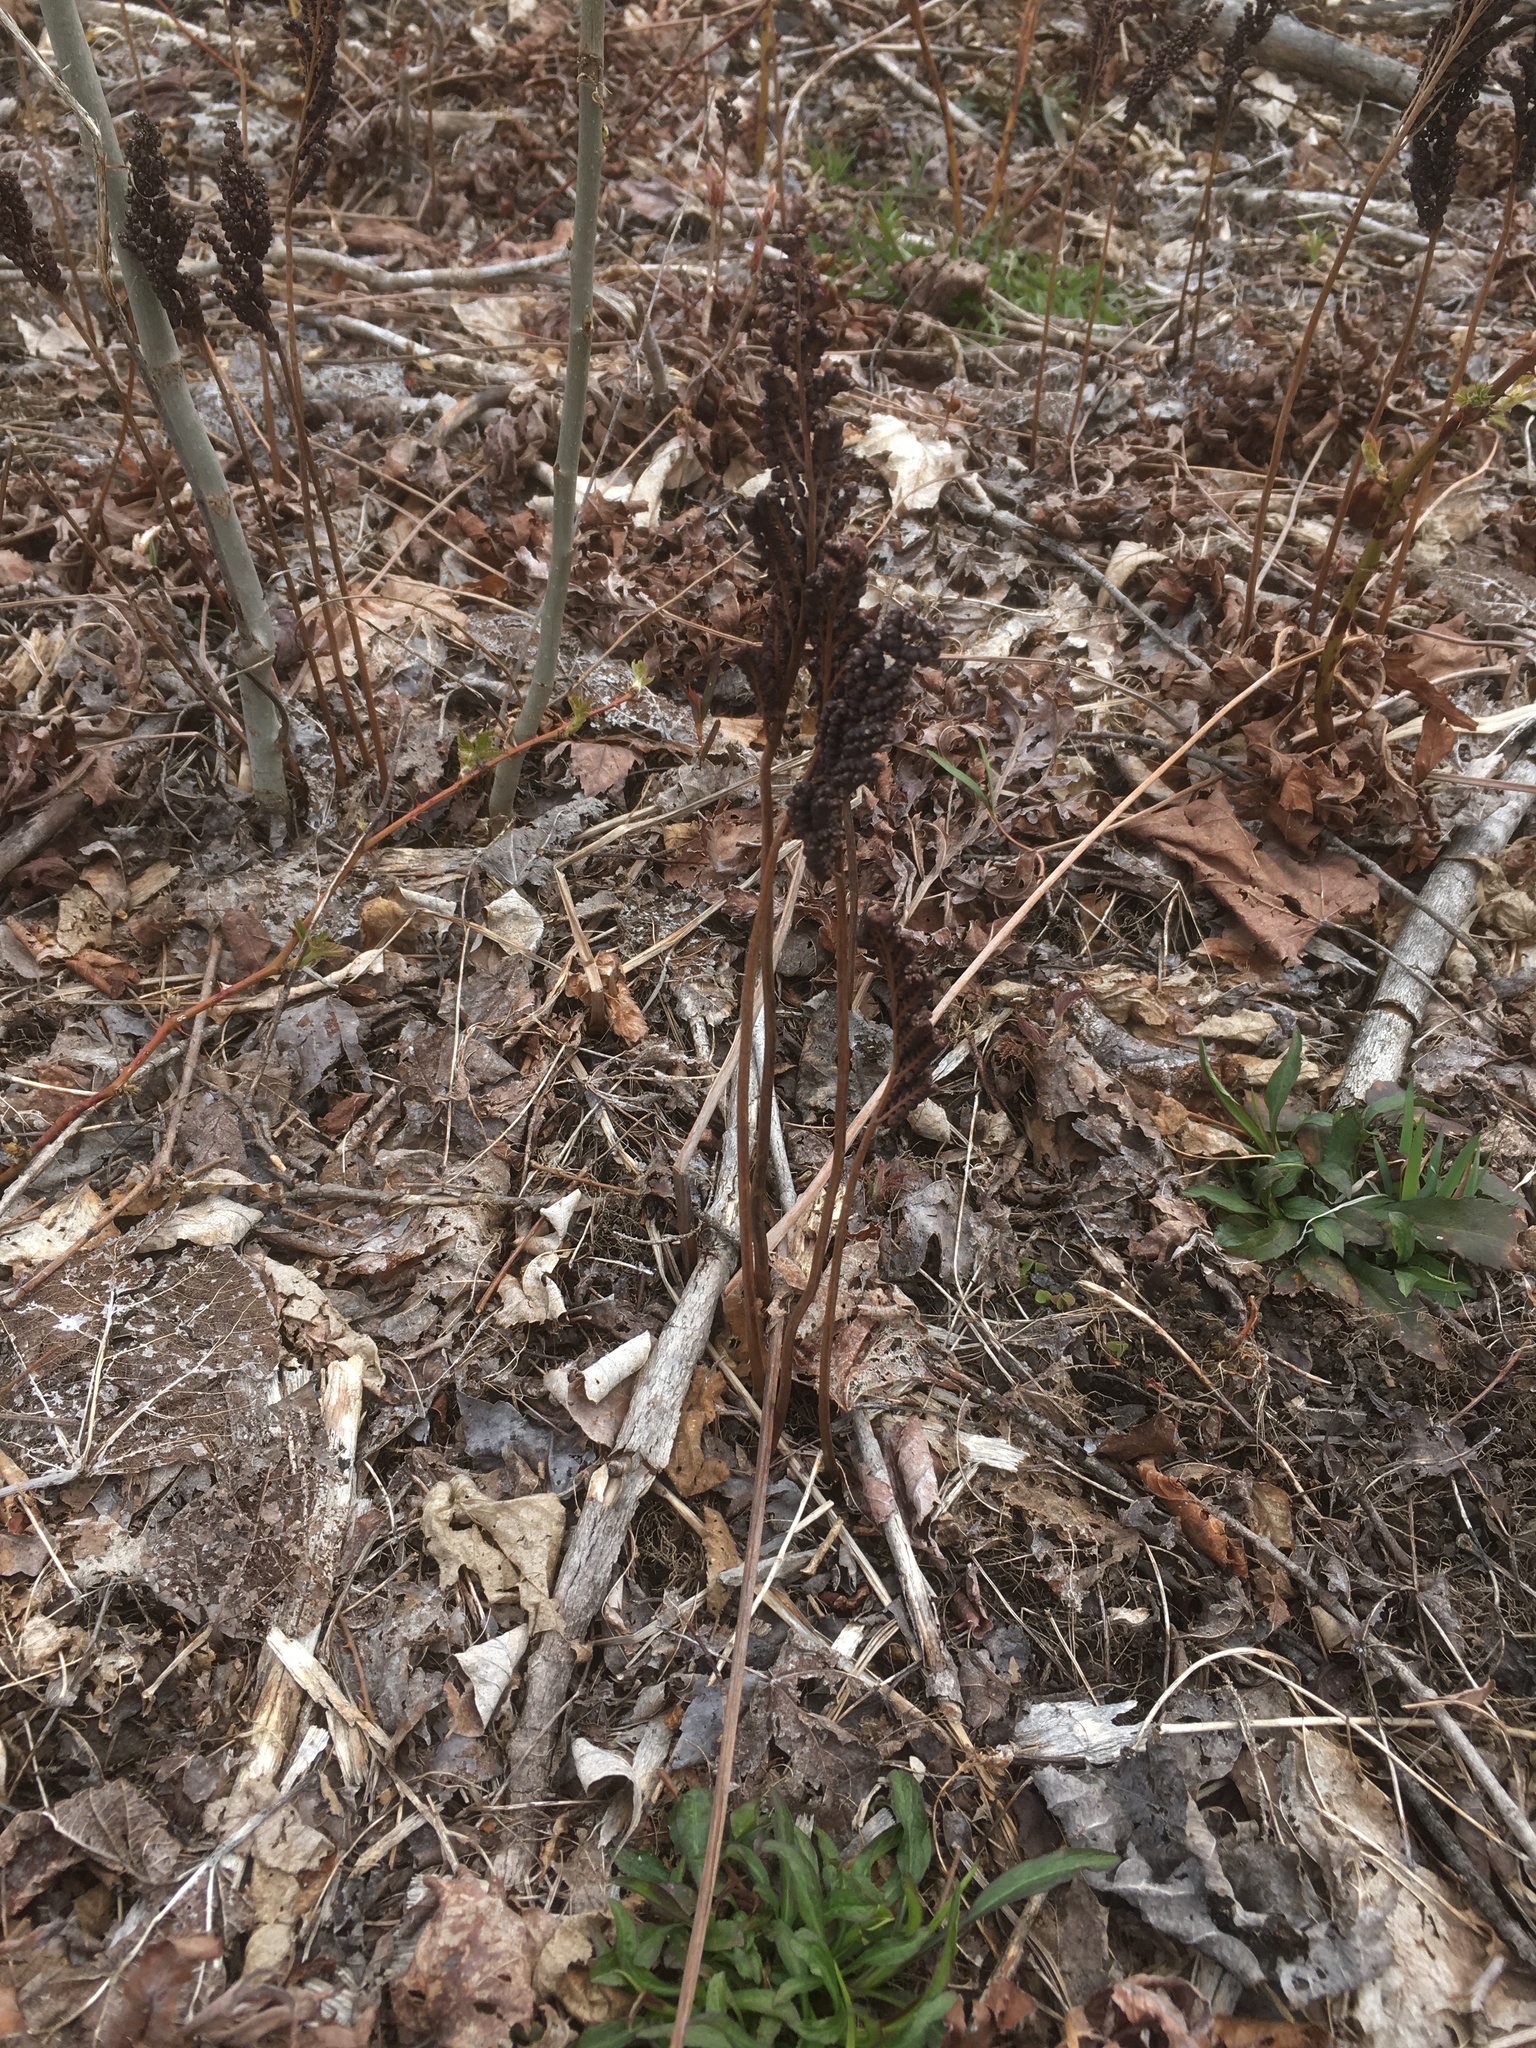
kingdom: Plantae
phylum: Tracheophyta
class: Polypodiopsida
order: Polypodiales
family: Onocleaceae
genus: Onoclea
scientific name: Onoclea sensibilis
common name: Sensitive fern
